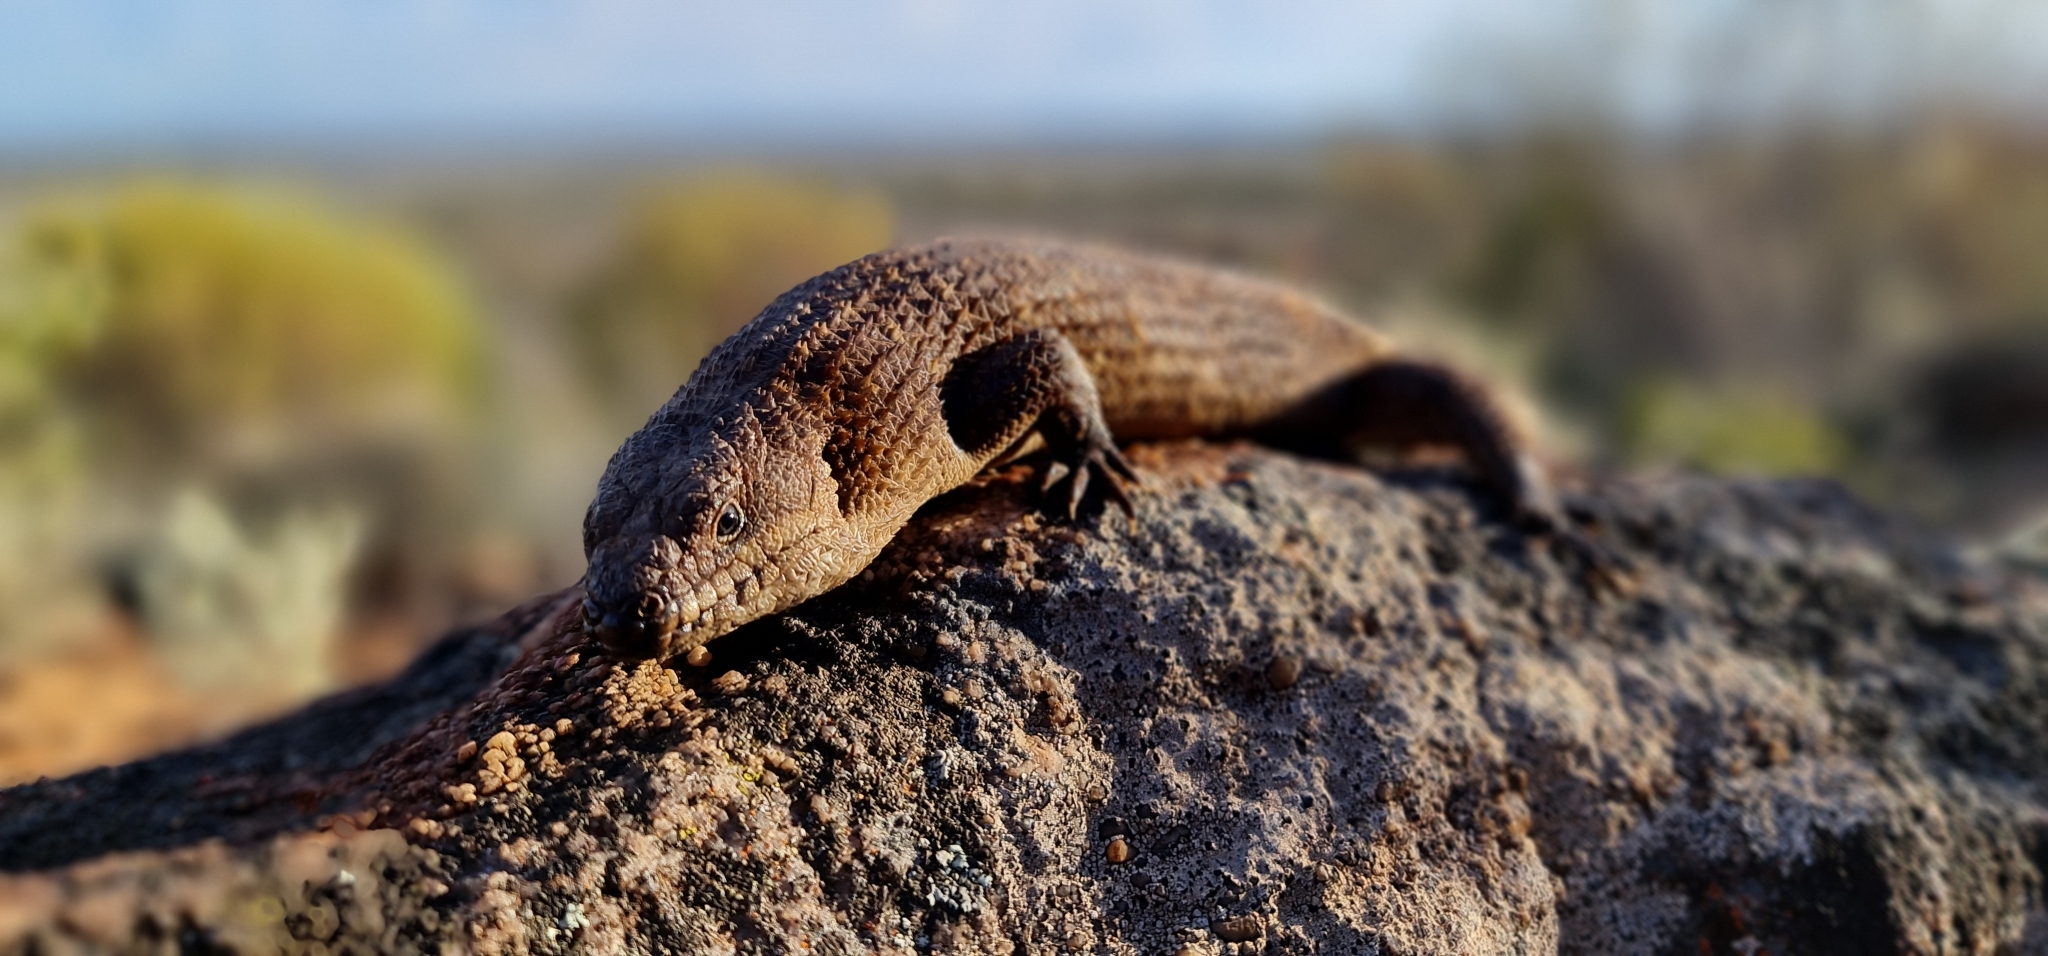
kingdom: Animalia
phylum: Chordata
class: Squamata
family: Scincidae
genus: Egernia
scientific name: Egernia stokesii
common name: Gidgee skink
